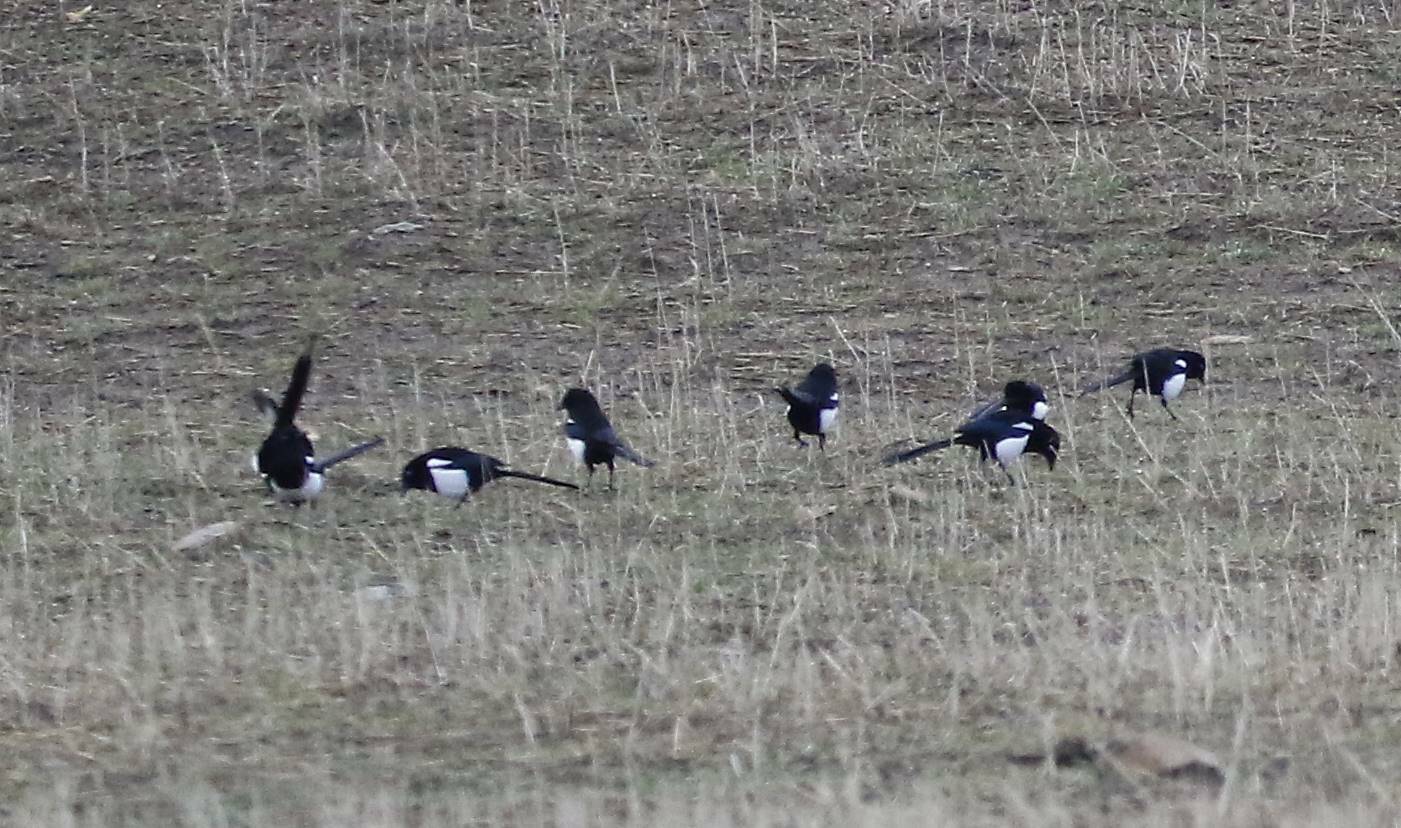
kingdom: Animalia
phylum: Chordata
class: Aves
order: Passeriformes
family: Corvidae
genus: Pica
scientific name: Pica mauritanica
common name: Maghreb magpie
